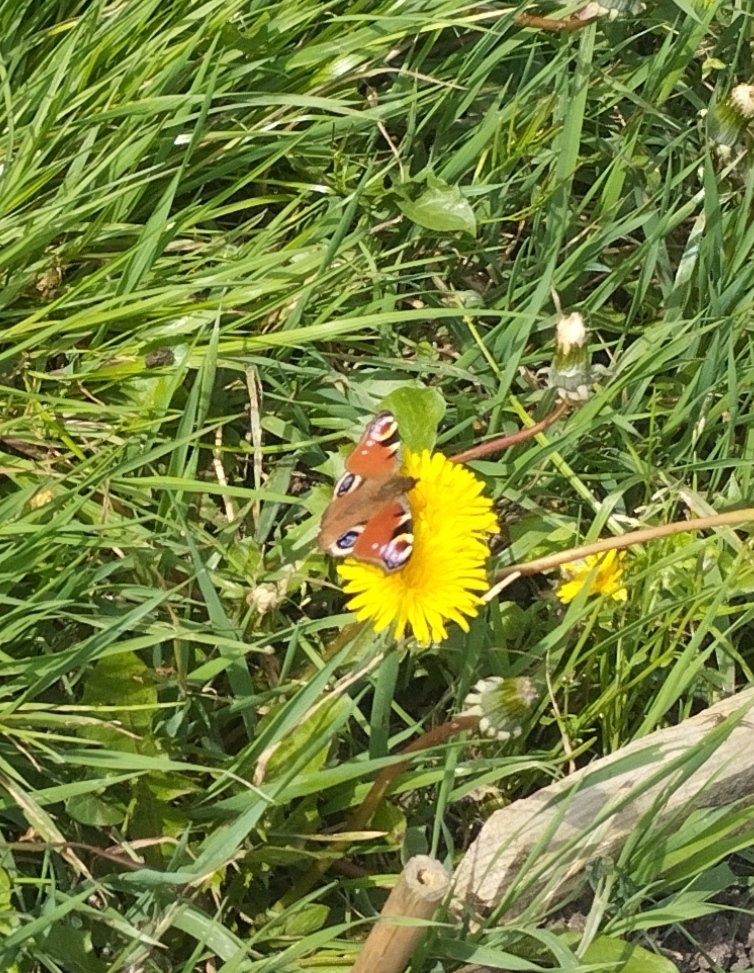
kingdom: Animalia
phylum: Arthropoda
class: Insecta
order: Lepidoptera
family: Nymphalidae
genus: Aglais
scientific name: Aglais io
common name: Peacock
